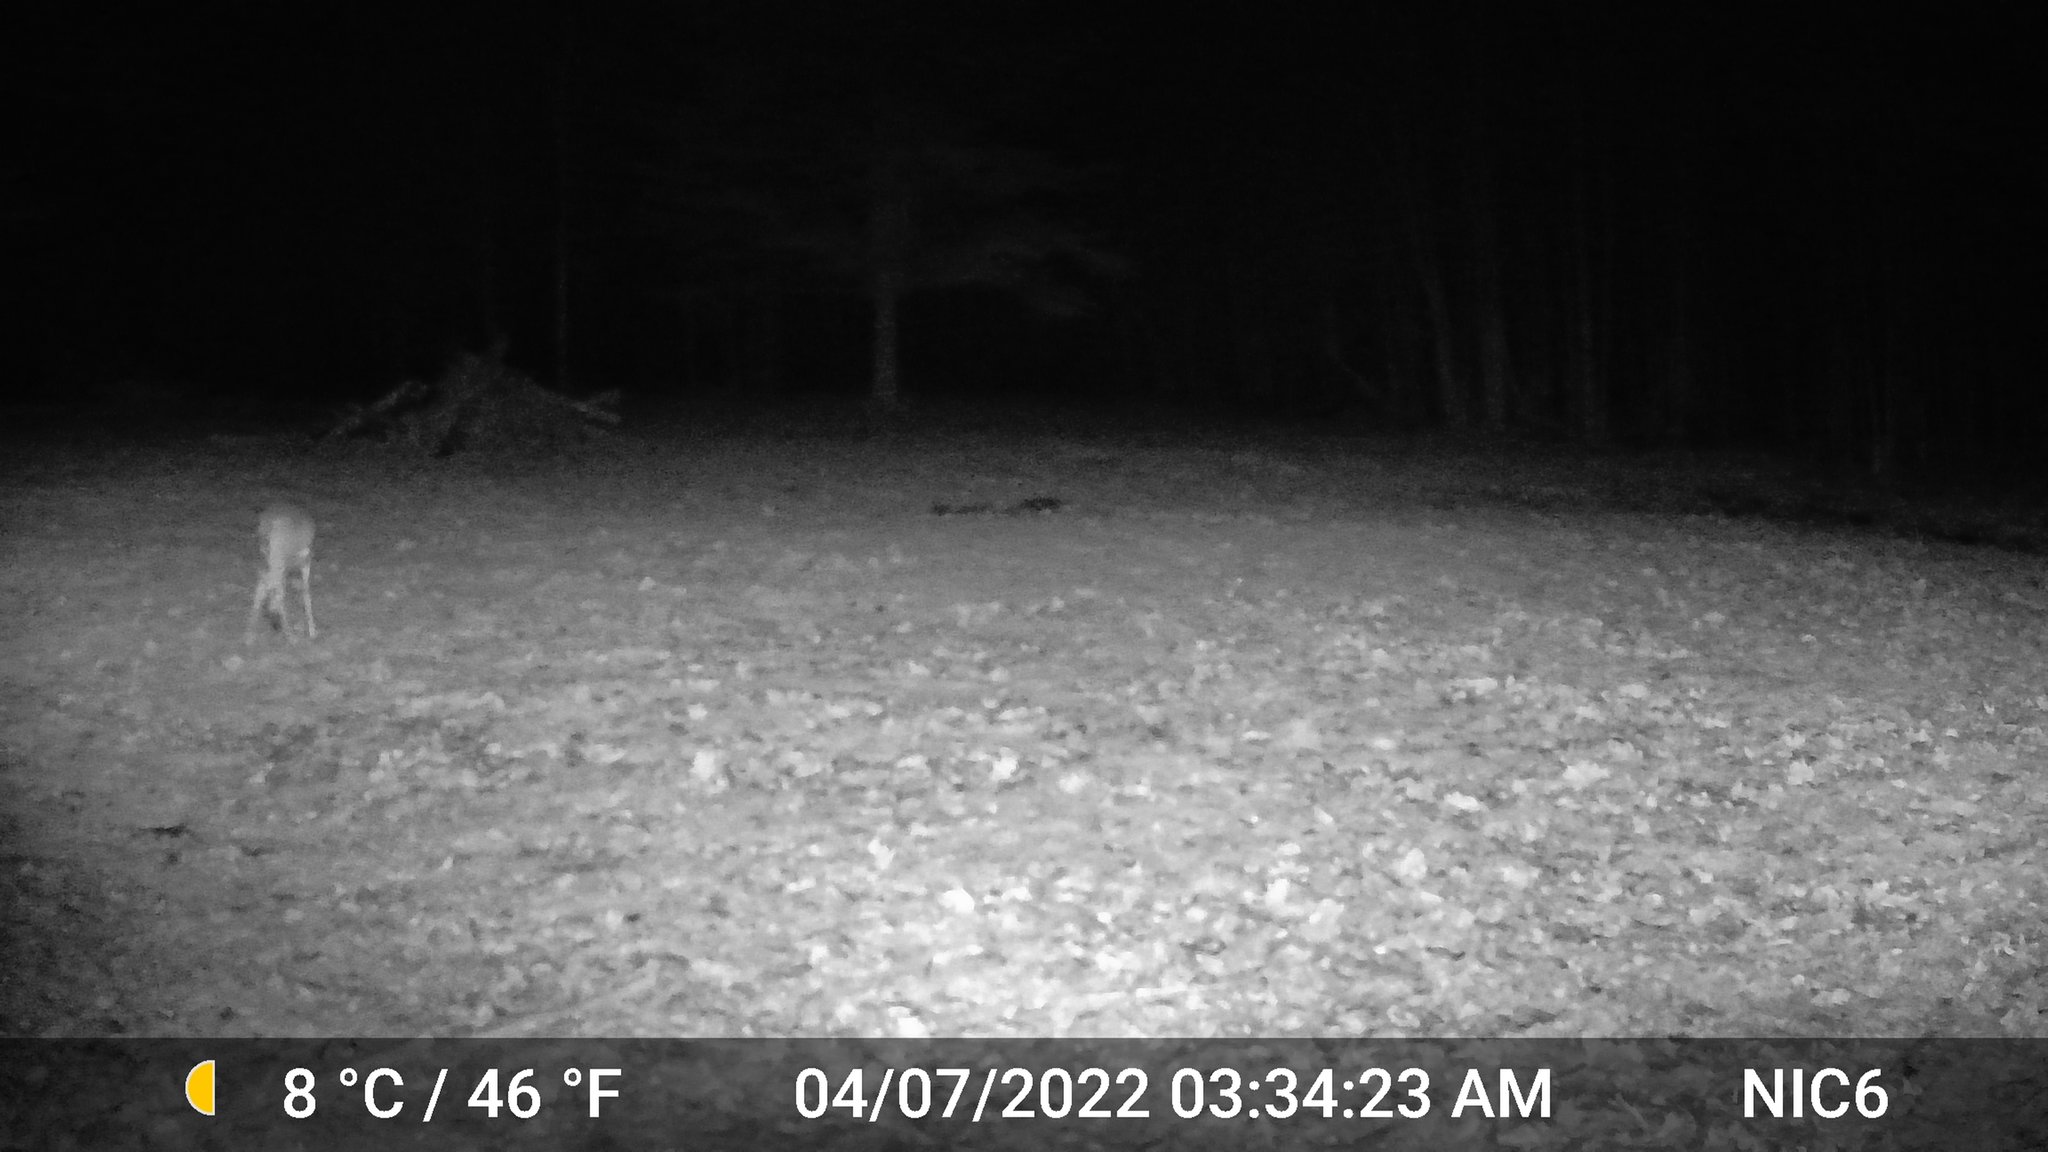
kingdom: Animalia
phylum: Chordata
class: Mammalia
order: Artiodactyla
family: Cervidae
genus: Odocoileus
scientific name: Odocoileus virginianus
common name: White-tailed deer
